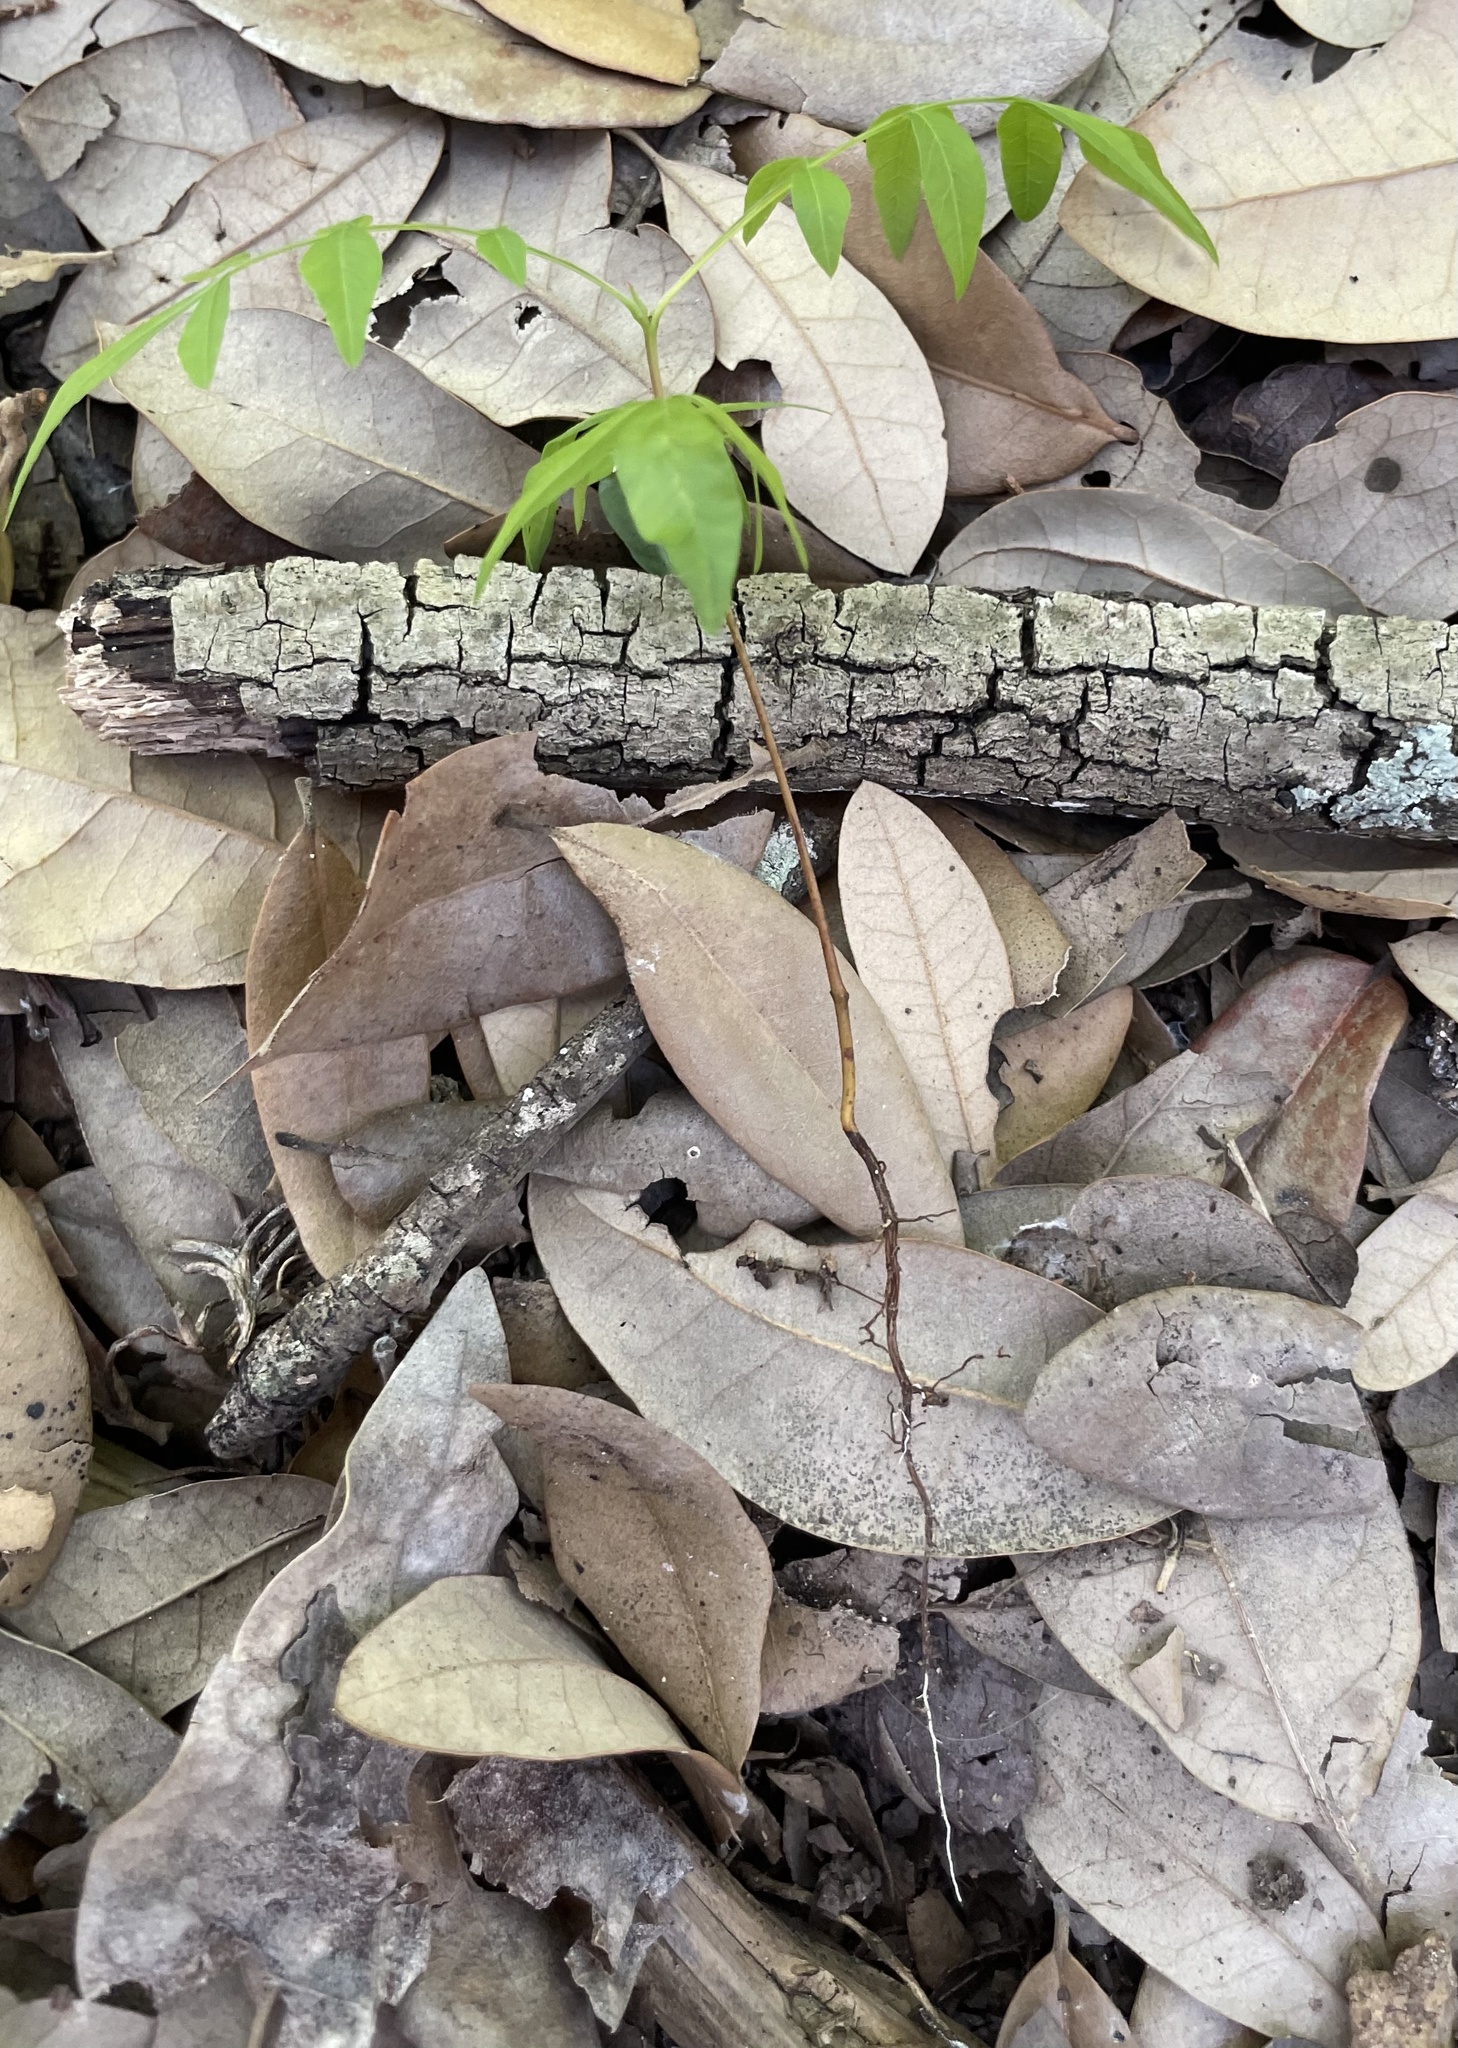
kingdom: Plantae
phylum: Tracheophyta
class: Magnoliopsida
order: Sapindales
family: Anacardiaceae
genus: Pistacia
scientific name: Pistacia chinensis
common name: Chinese pistache
